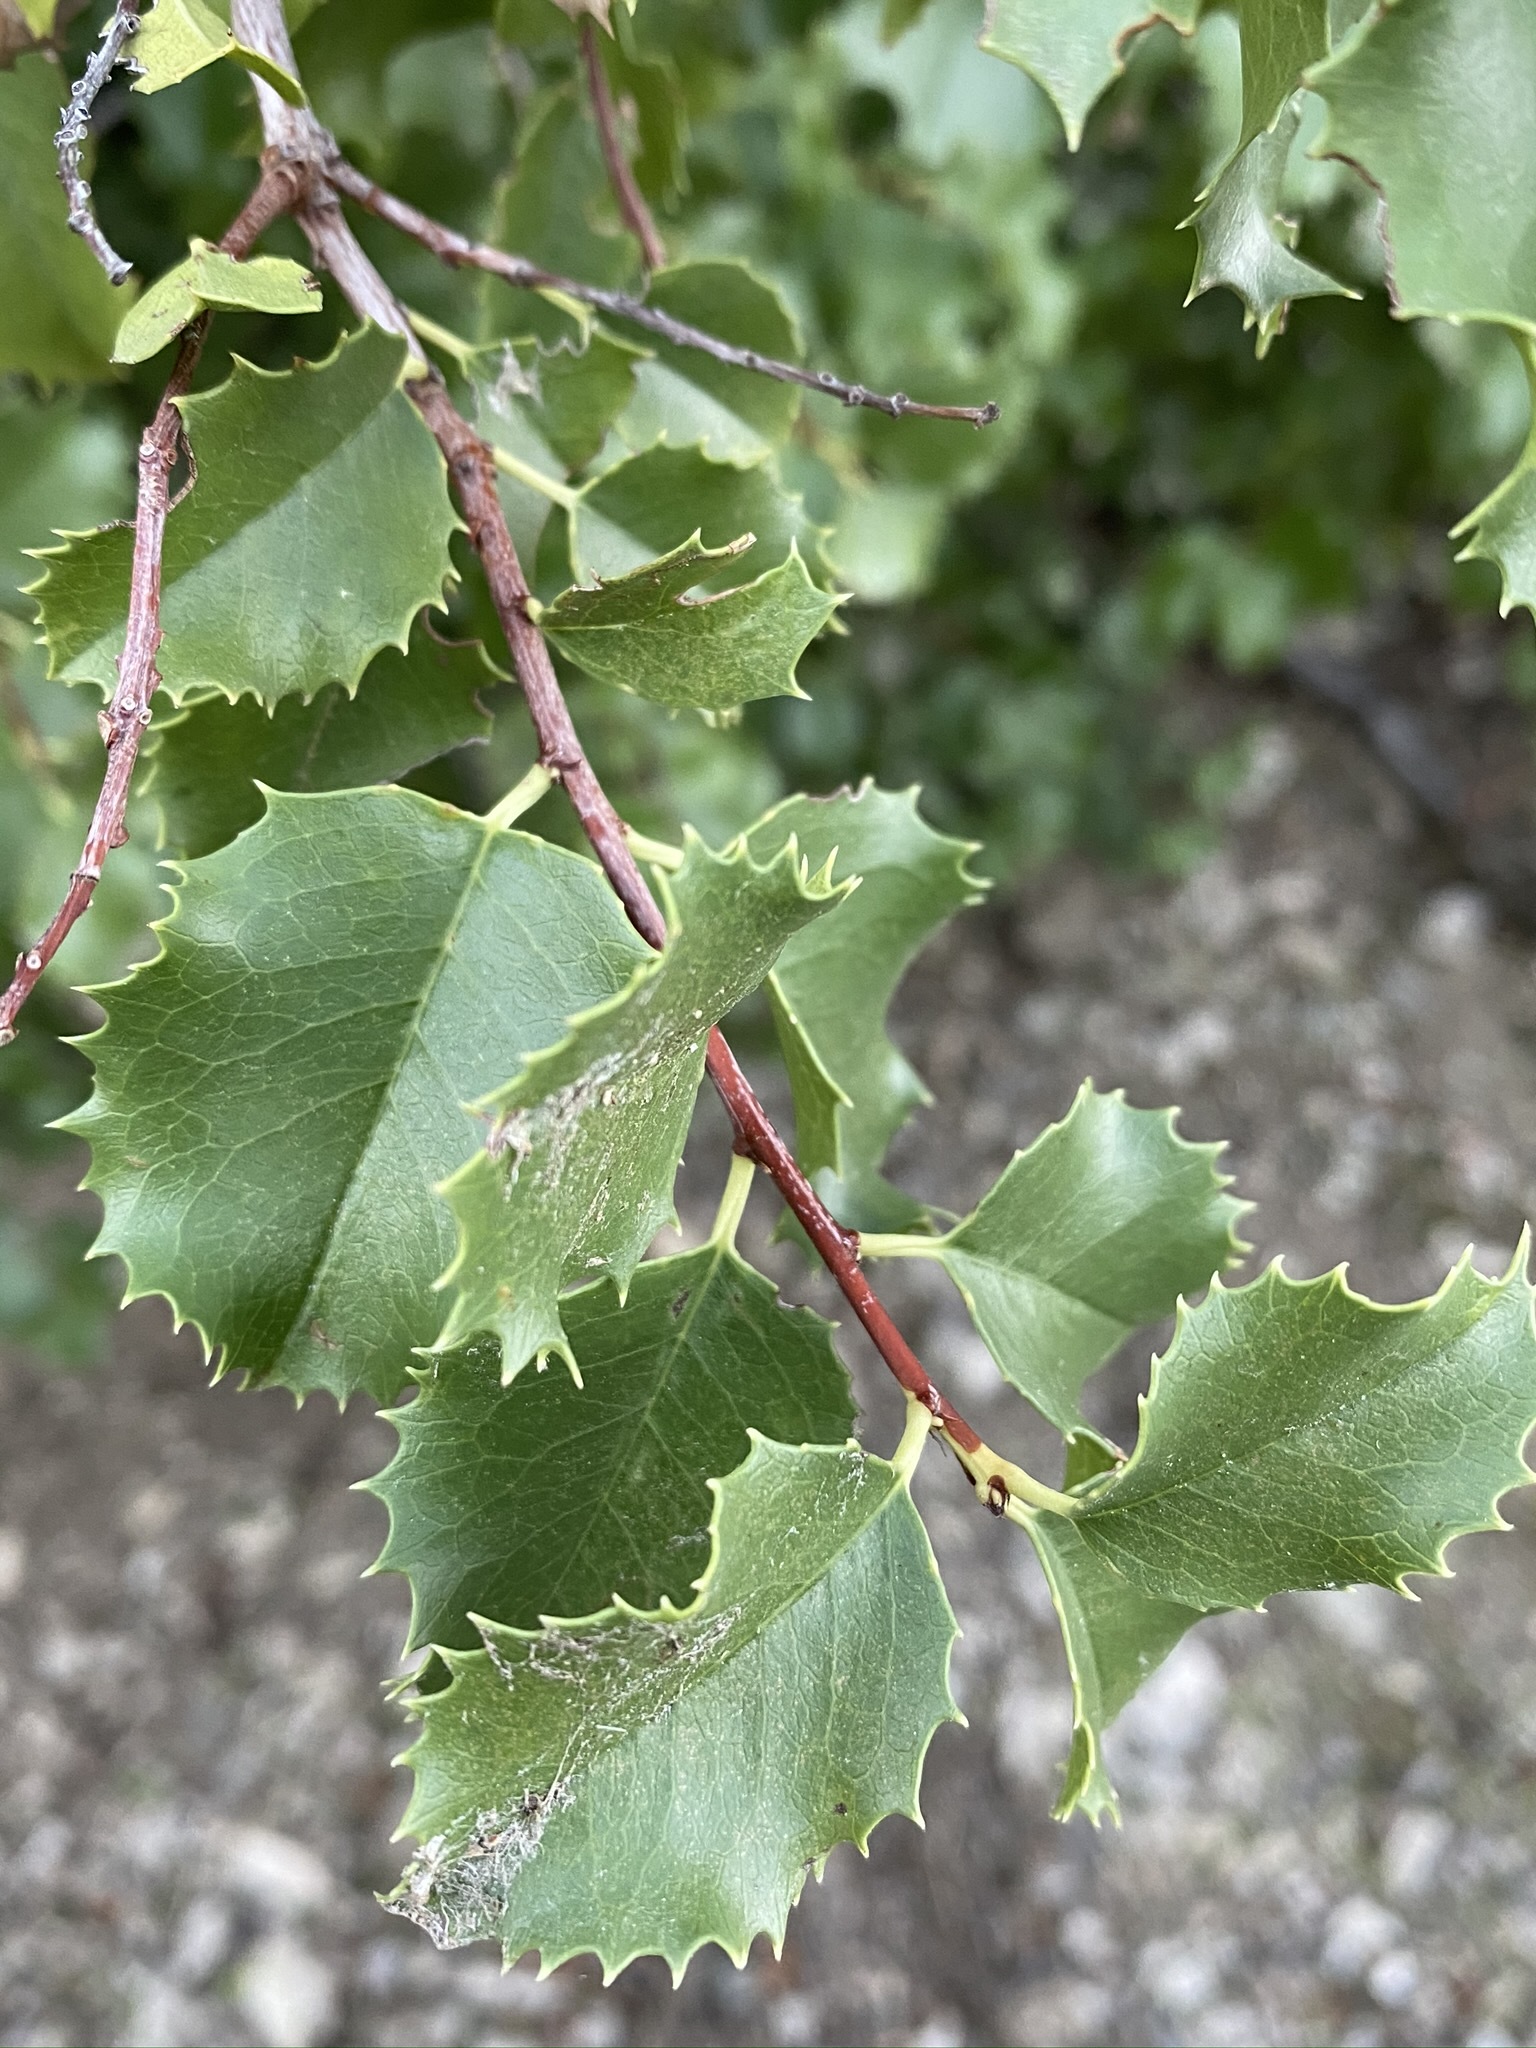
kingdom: Plantae
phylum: Tracheophyta
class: Magnoliopsida
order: Rosales
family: Rosaceae
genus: Prunus
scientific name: Prunus ilicifolia
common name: Hollyleaf cherry
